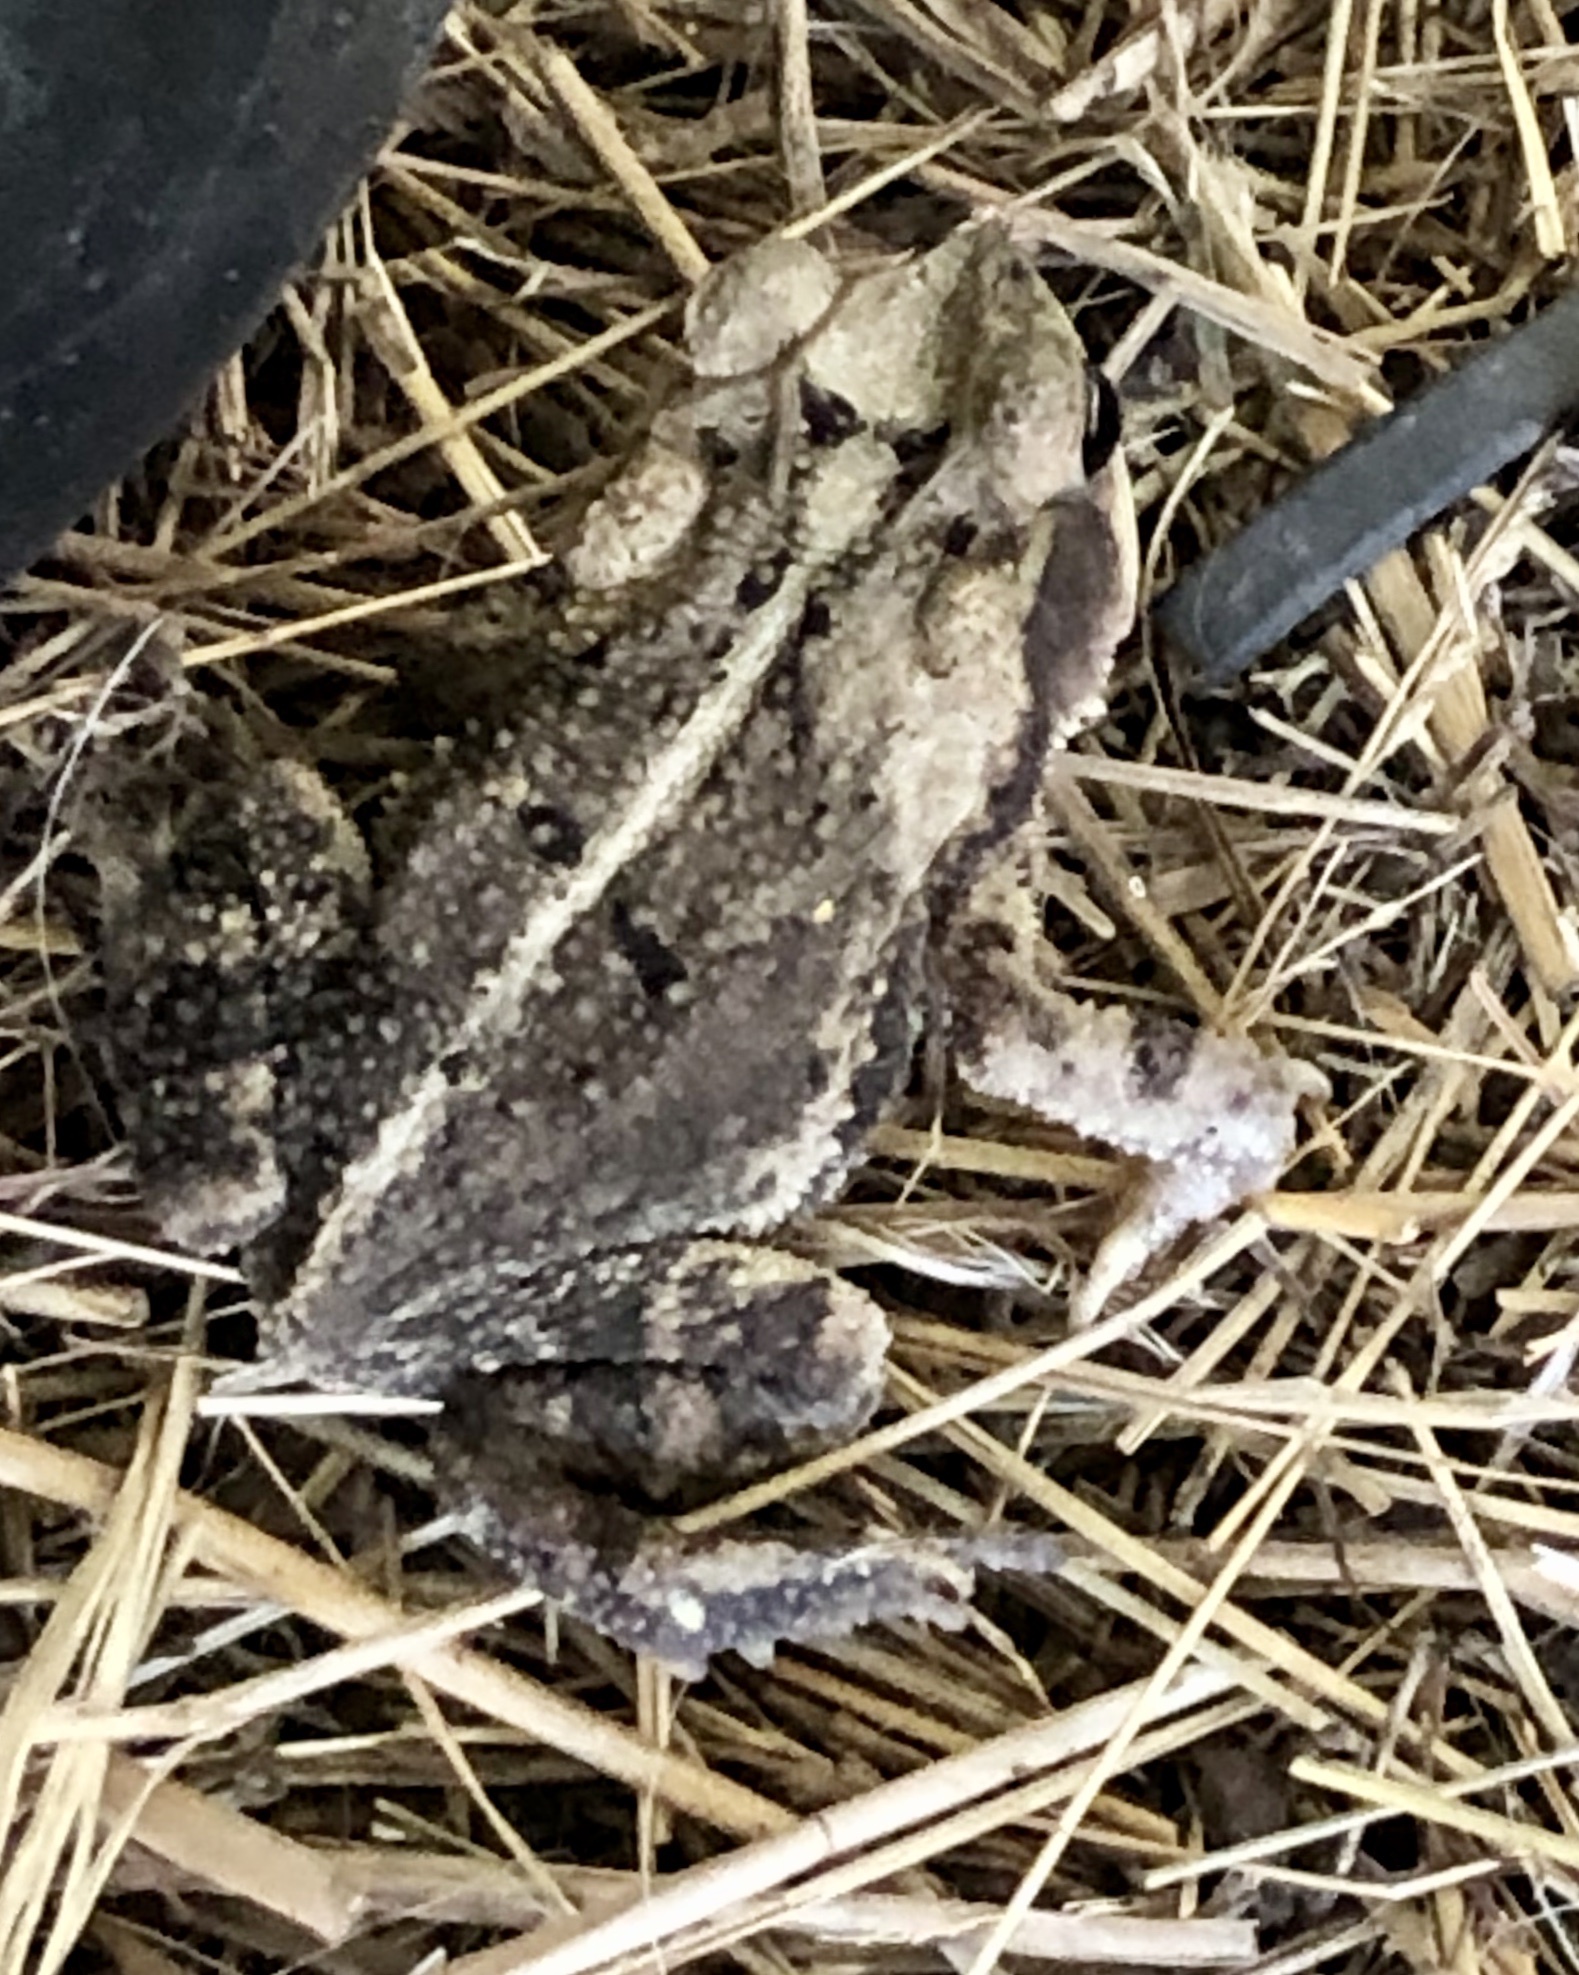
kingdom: Animalia
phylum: Chordata
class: Amphibia
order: Anura
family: Bufonidae
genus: Incilius
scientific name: Incilius nebulifer
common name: Gulf coast toad
